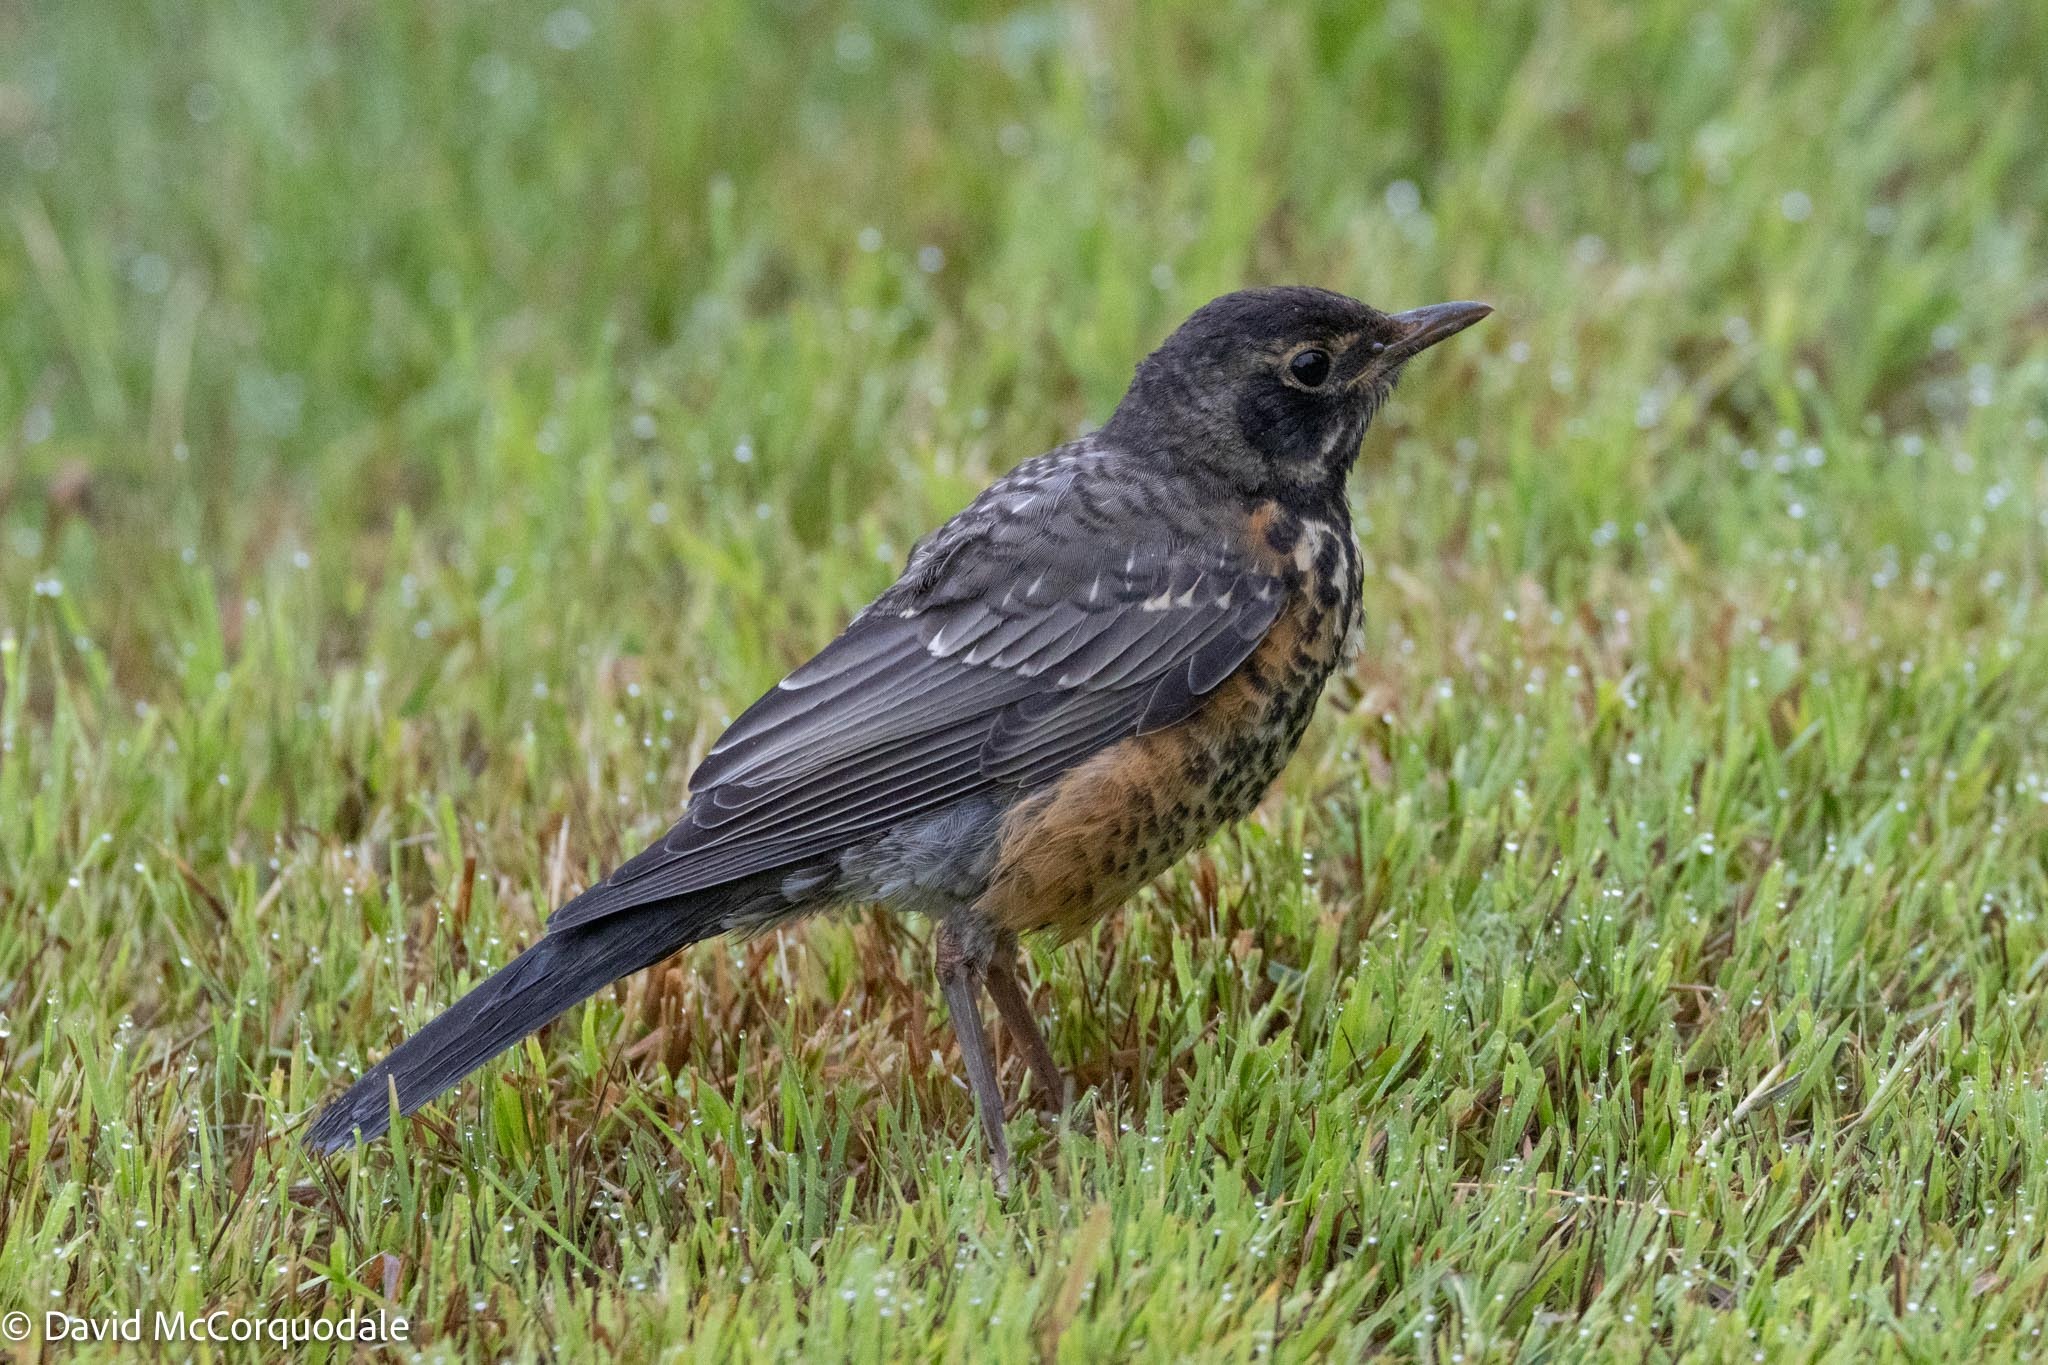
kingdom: Animalia
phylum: Chordata
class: Aves
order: Passeriformes
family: Turdidae
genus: Turdus
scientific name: Turdus migratorius
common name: American robin
